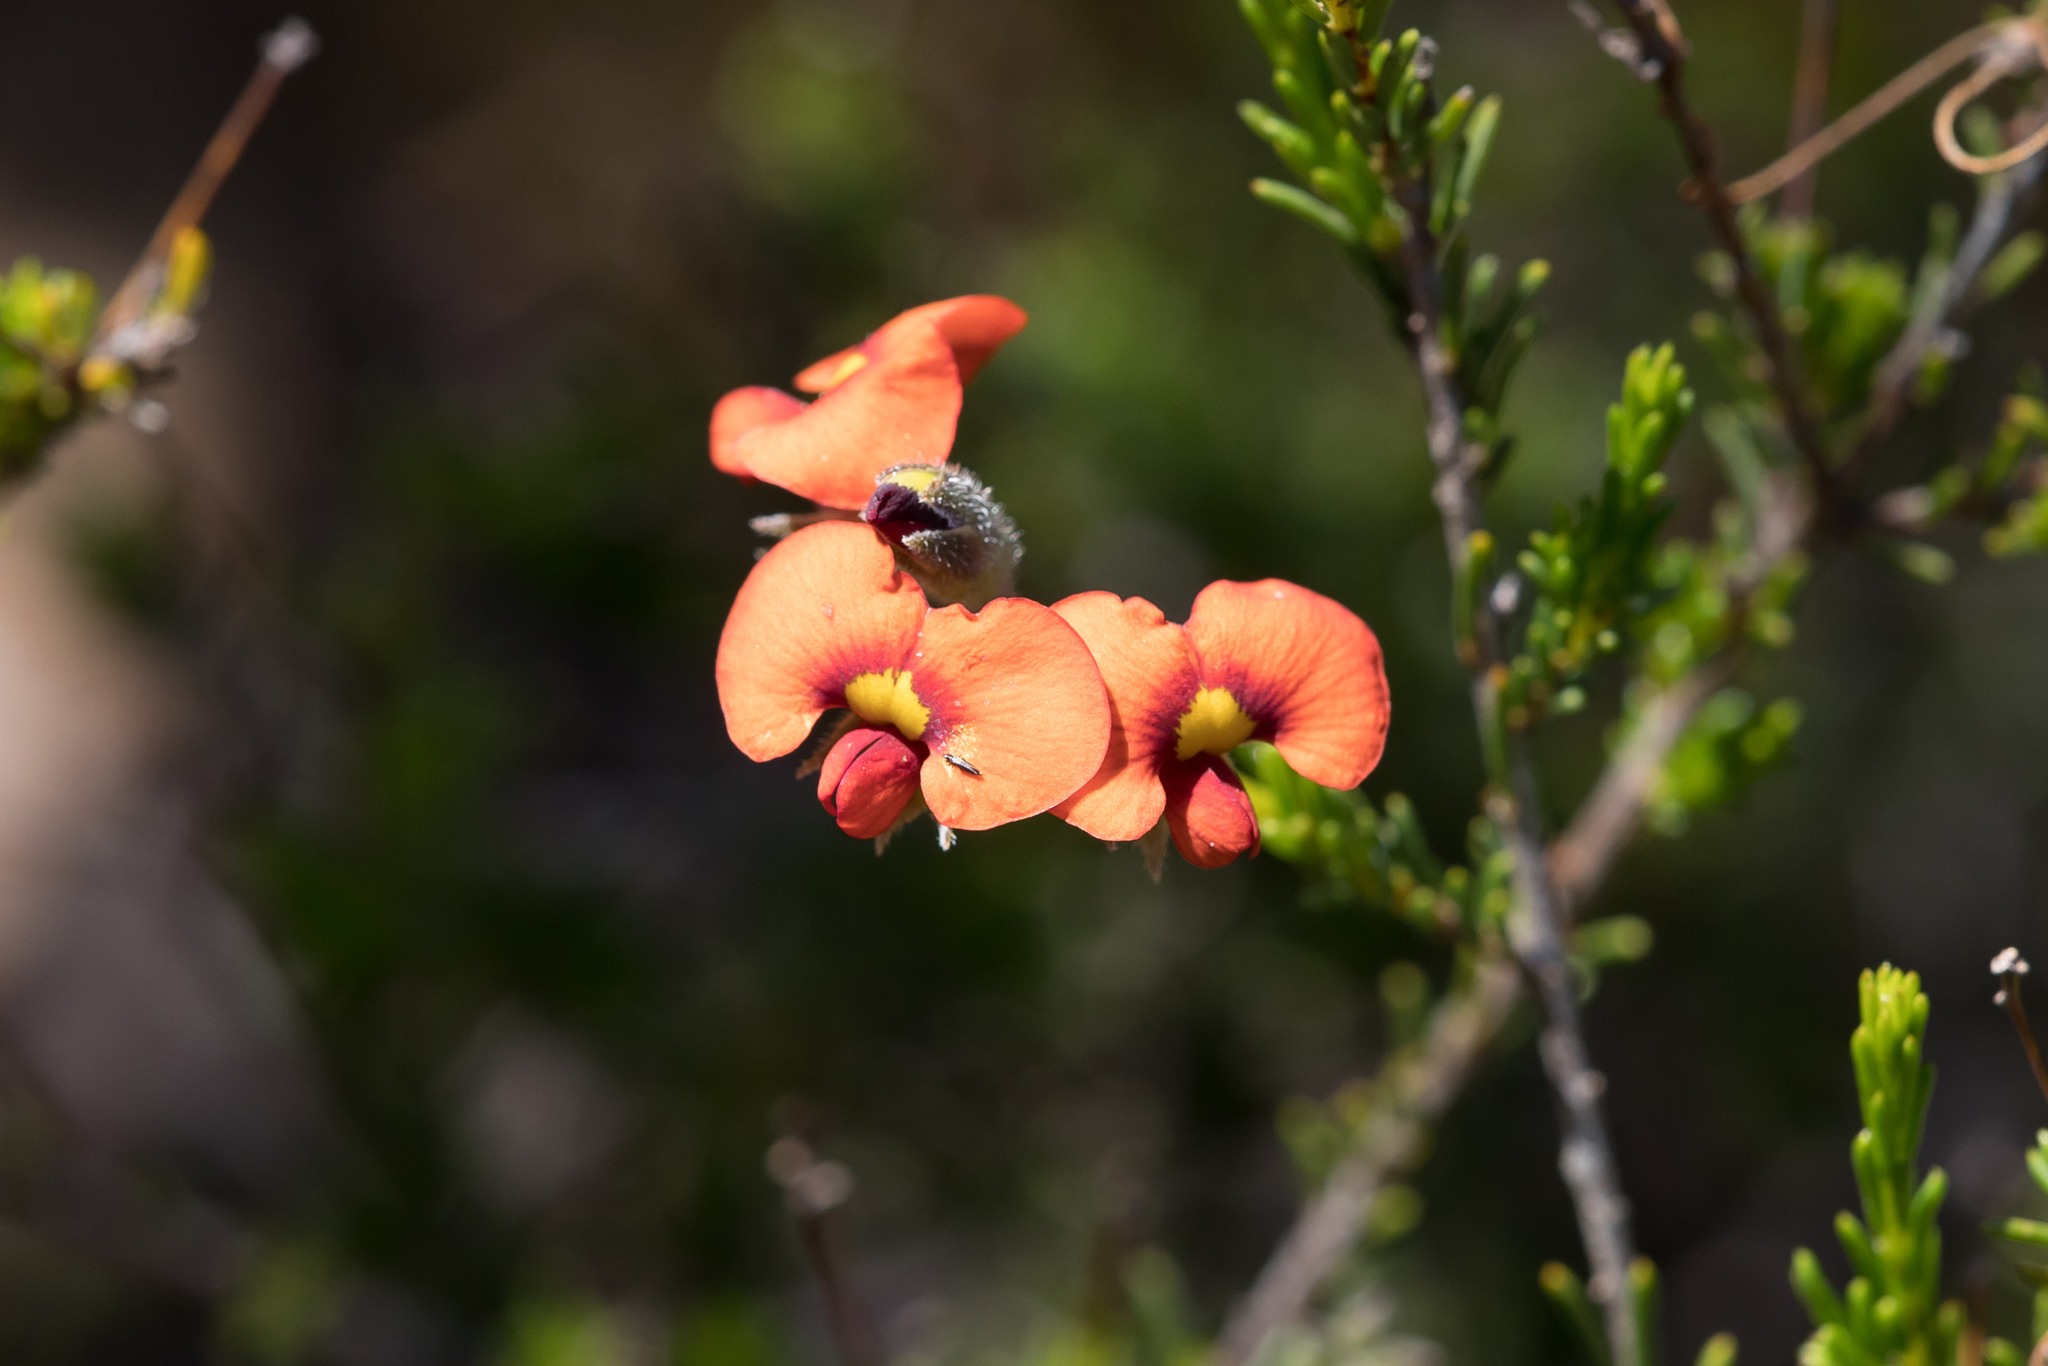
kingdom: Plantae
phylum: Tracheophyta
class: Magnoliopsida
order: Fabales
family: Fabaceae
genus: Dillwynia
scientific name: Dillwynia hispida
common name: Red parrot-pea
